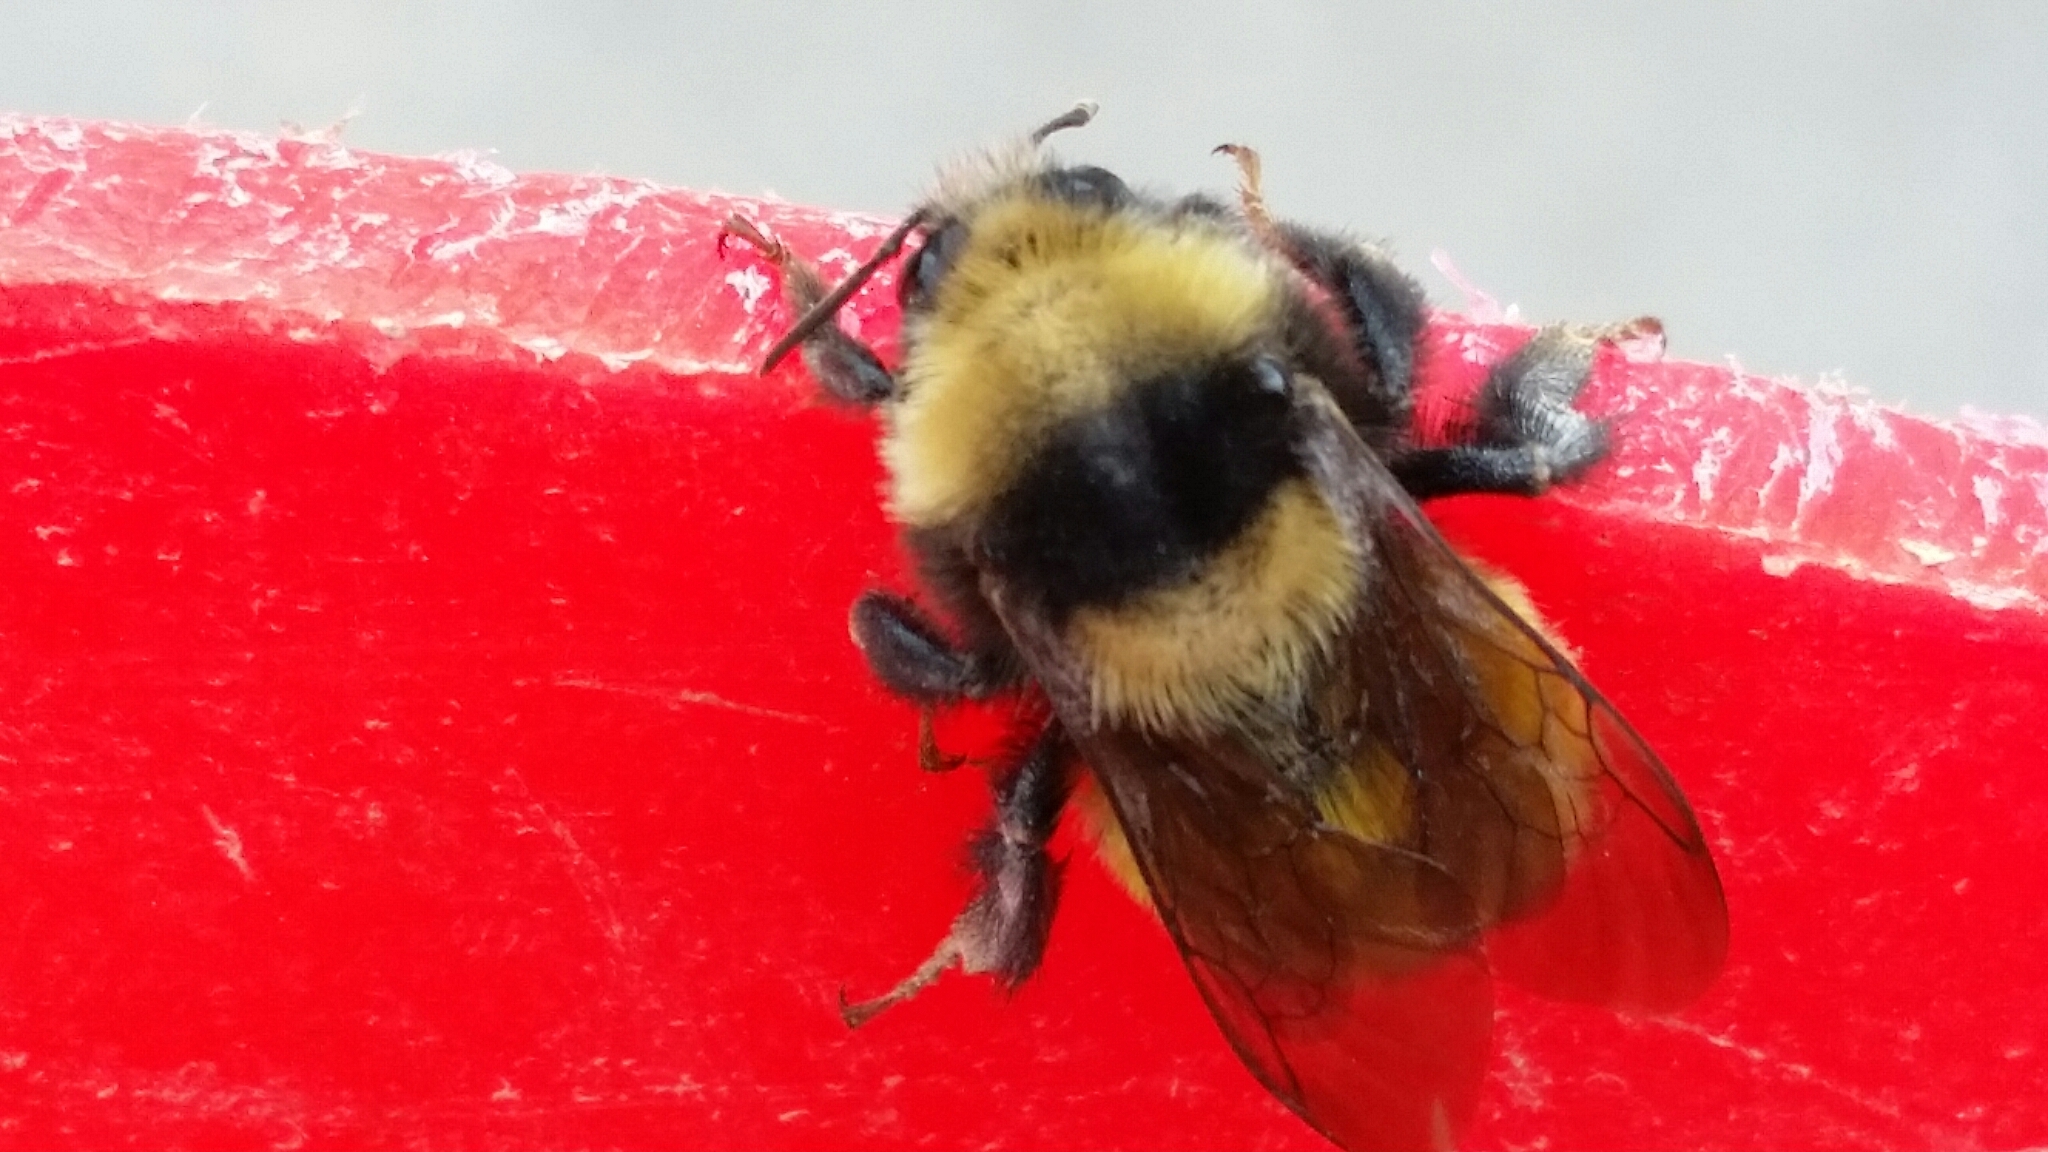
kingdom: Animalia
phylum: Arthropoda
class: Insecta
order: Hymenoptera
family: Apidae
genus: Bombus
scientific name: Bombus borealis
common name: Northern amber bumble bee
